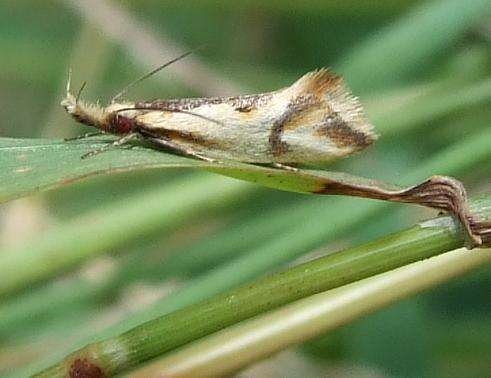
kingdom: Animalia
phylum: Arthropoda
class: Insecta
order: Lepidoptera
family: Oecophoridae
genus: Thema
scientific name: Thema chlorochyta
